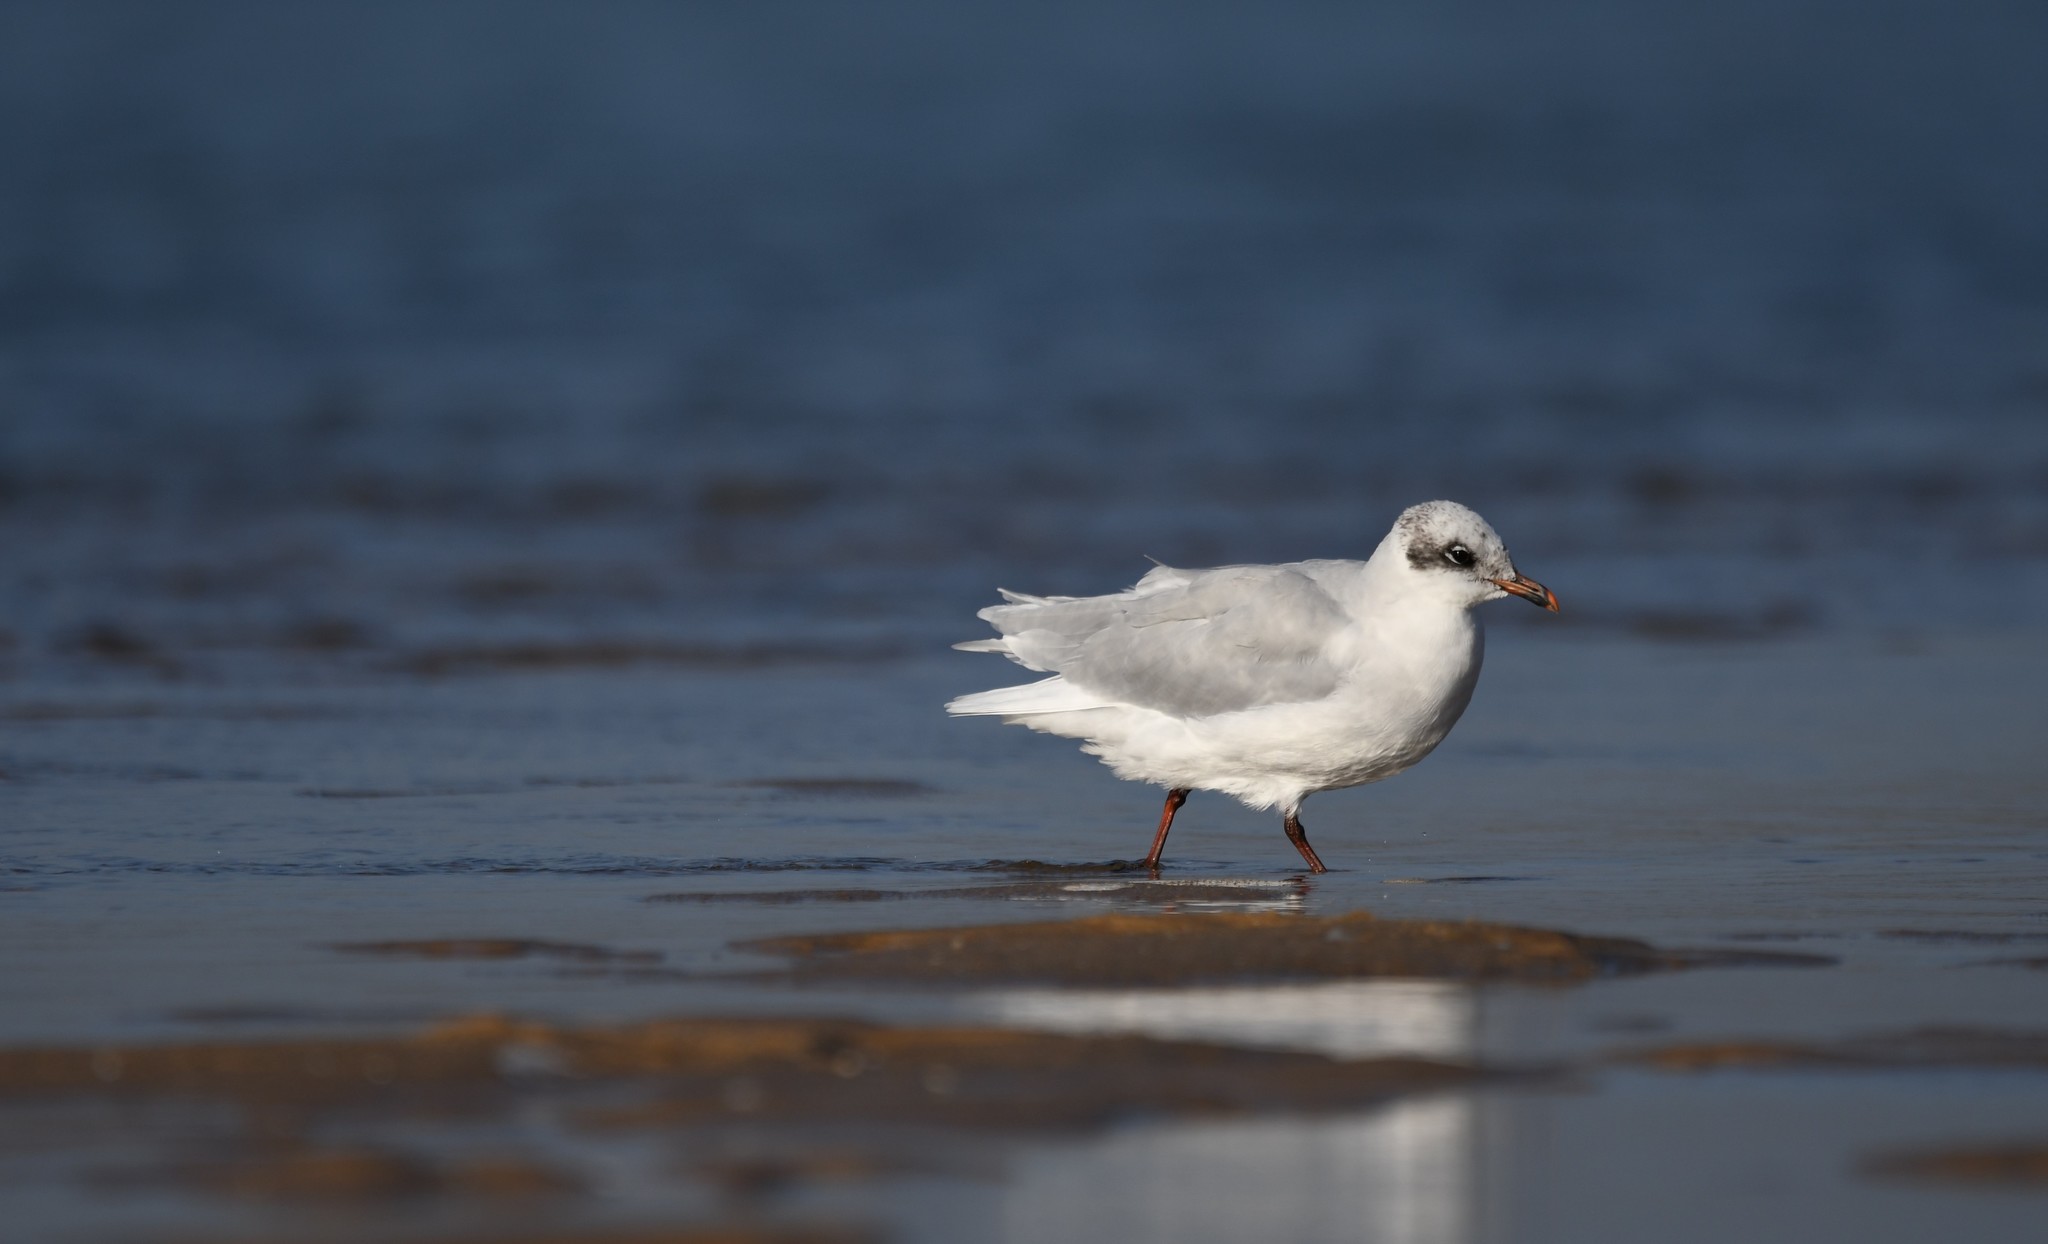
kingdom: Animalia
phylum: Chordata
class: Aves
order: Charadriiformes
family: Laridae
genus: Ichthyaetus
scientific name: Ichthyaetus melanocephalus
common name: Mediterranean gull
